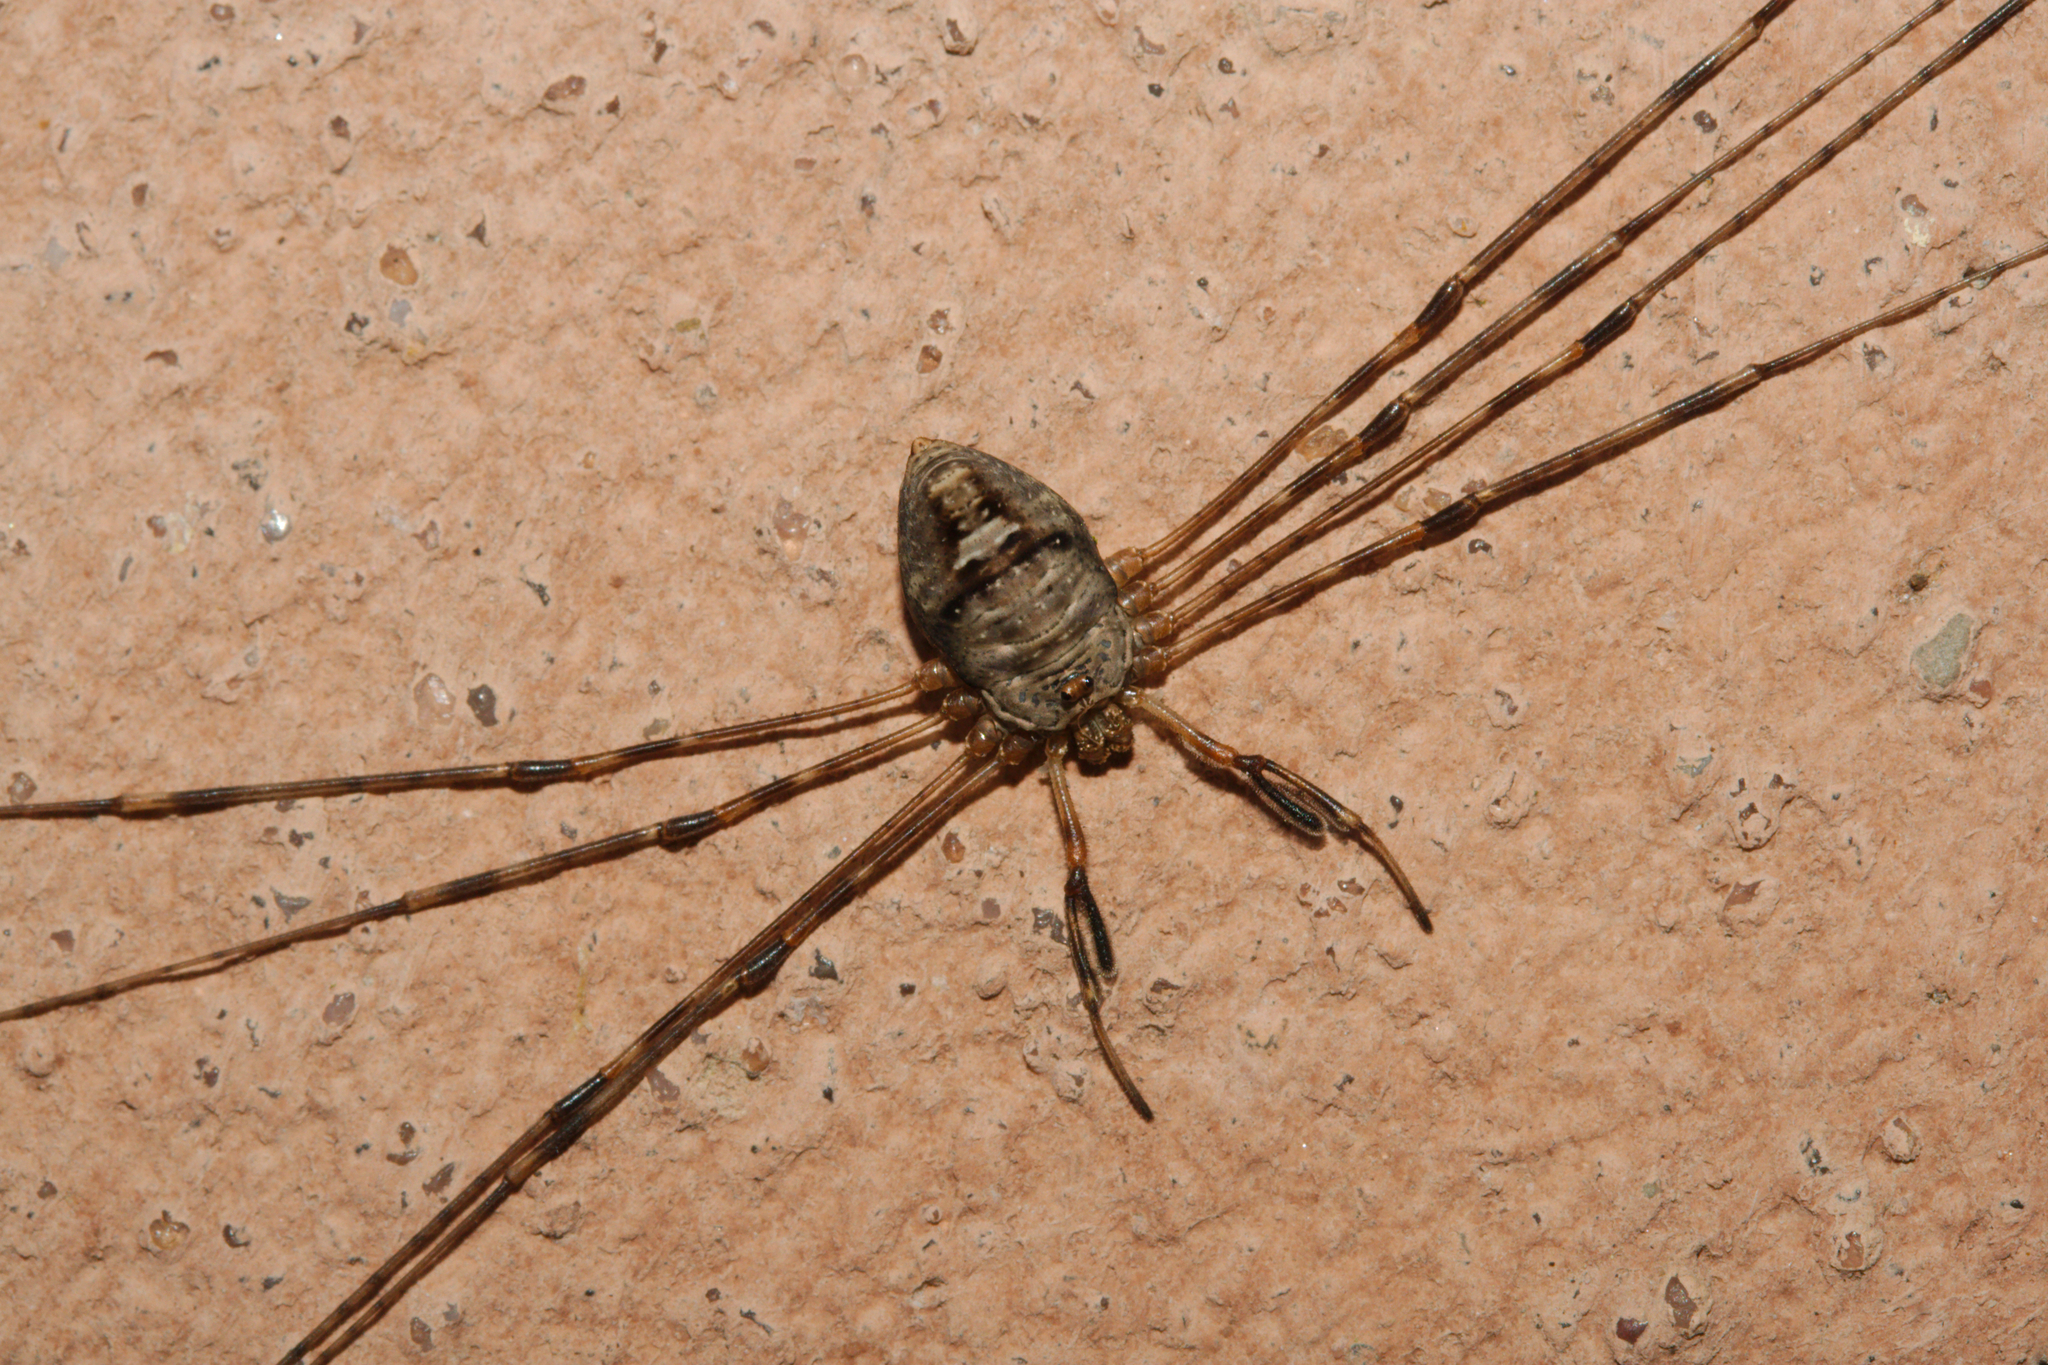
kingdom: Animalia
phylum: Arthropoda
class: Arachnida
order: Opiliones
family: Phalangiidae
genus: Dicranopalpus
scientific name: Dicranopalpus ramosus
